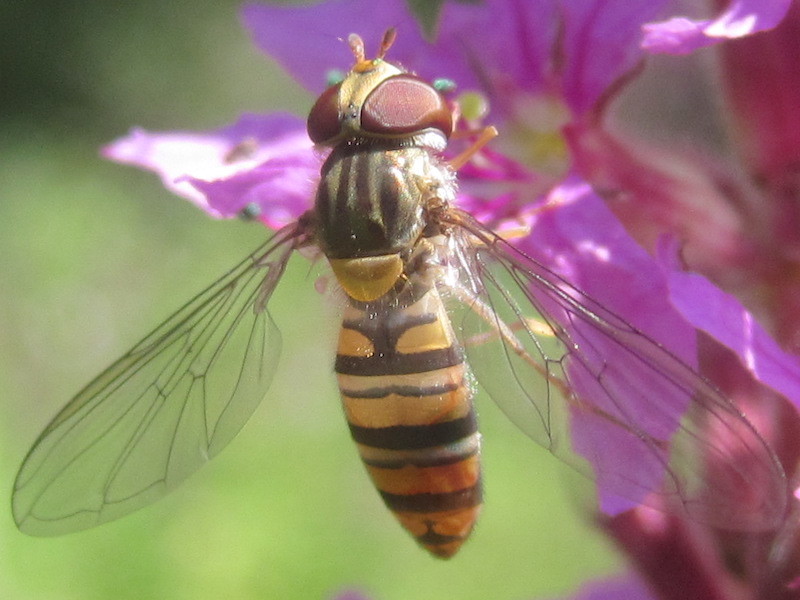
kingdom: Animalia
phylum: Arthropoda
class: Insecta
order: Diptera
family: Syrphidae
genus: Episyrphus
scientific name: Episyrphus balteatus
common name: Marmalade hoverfly
